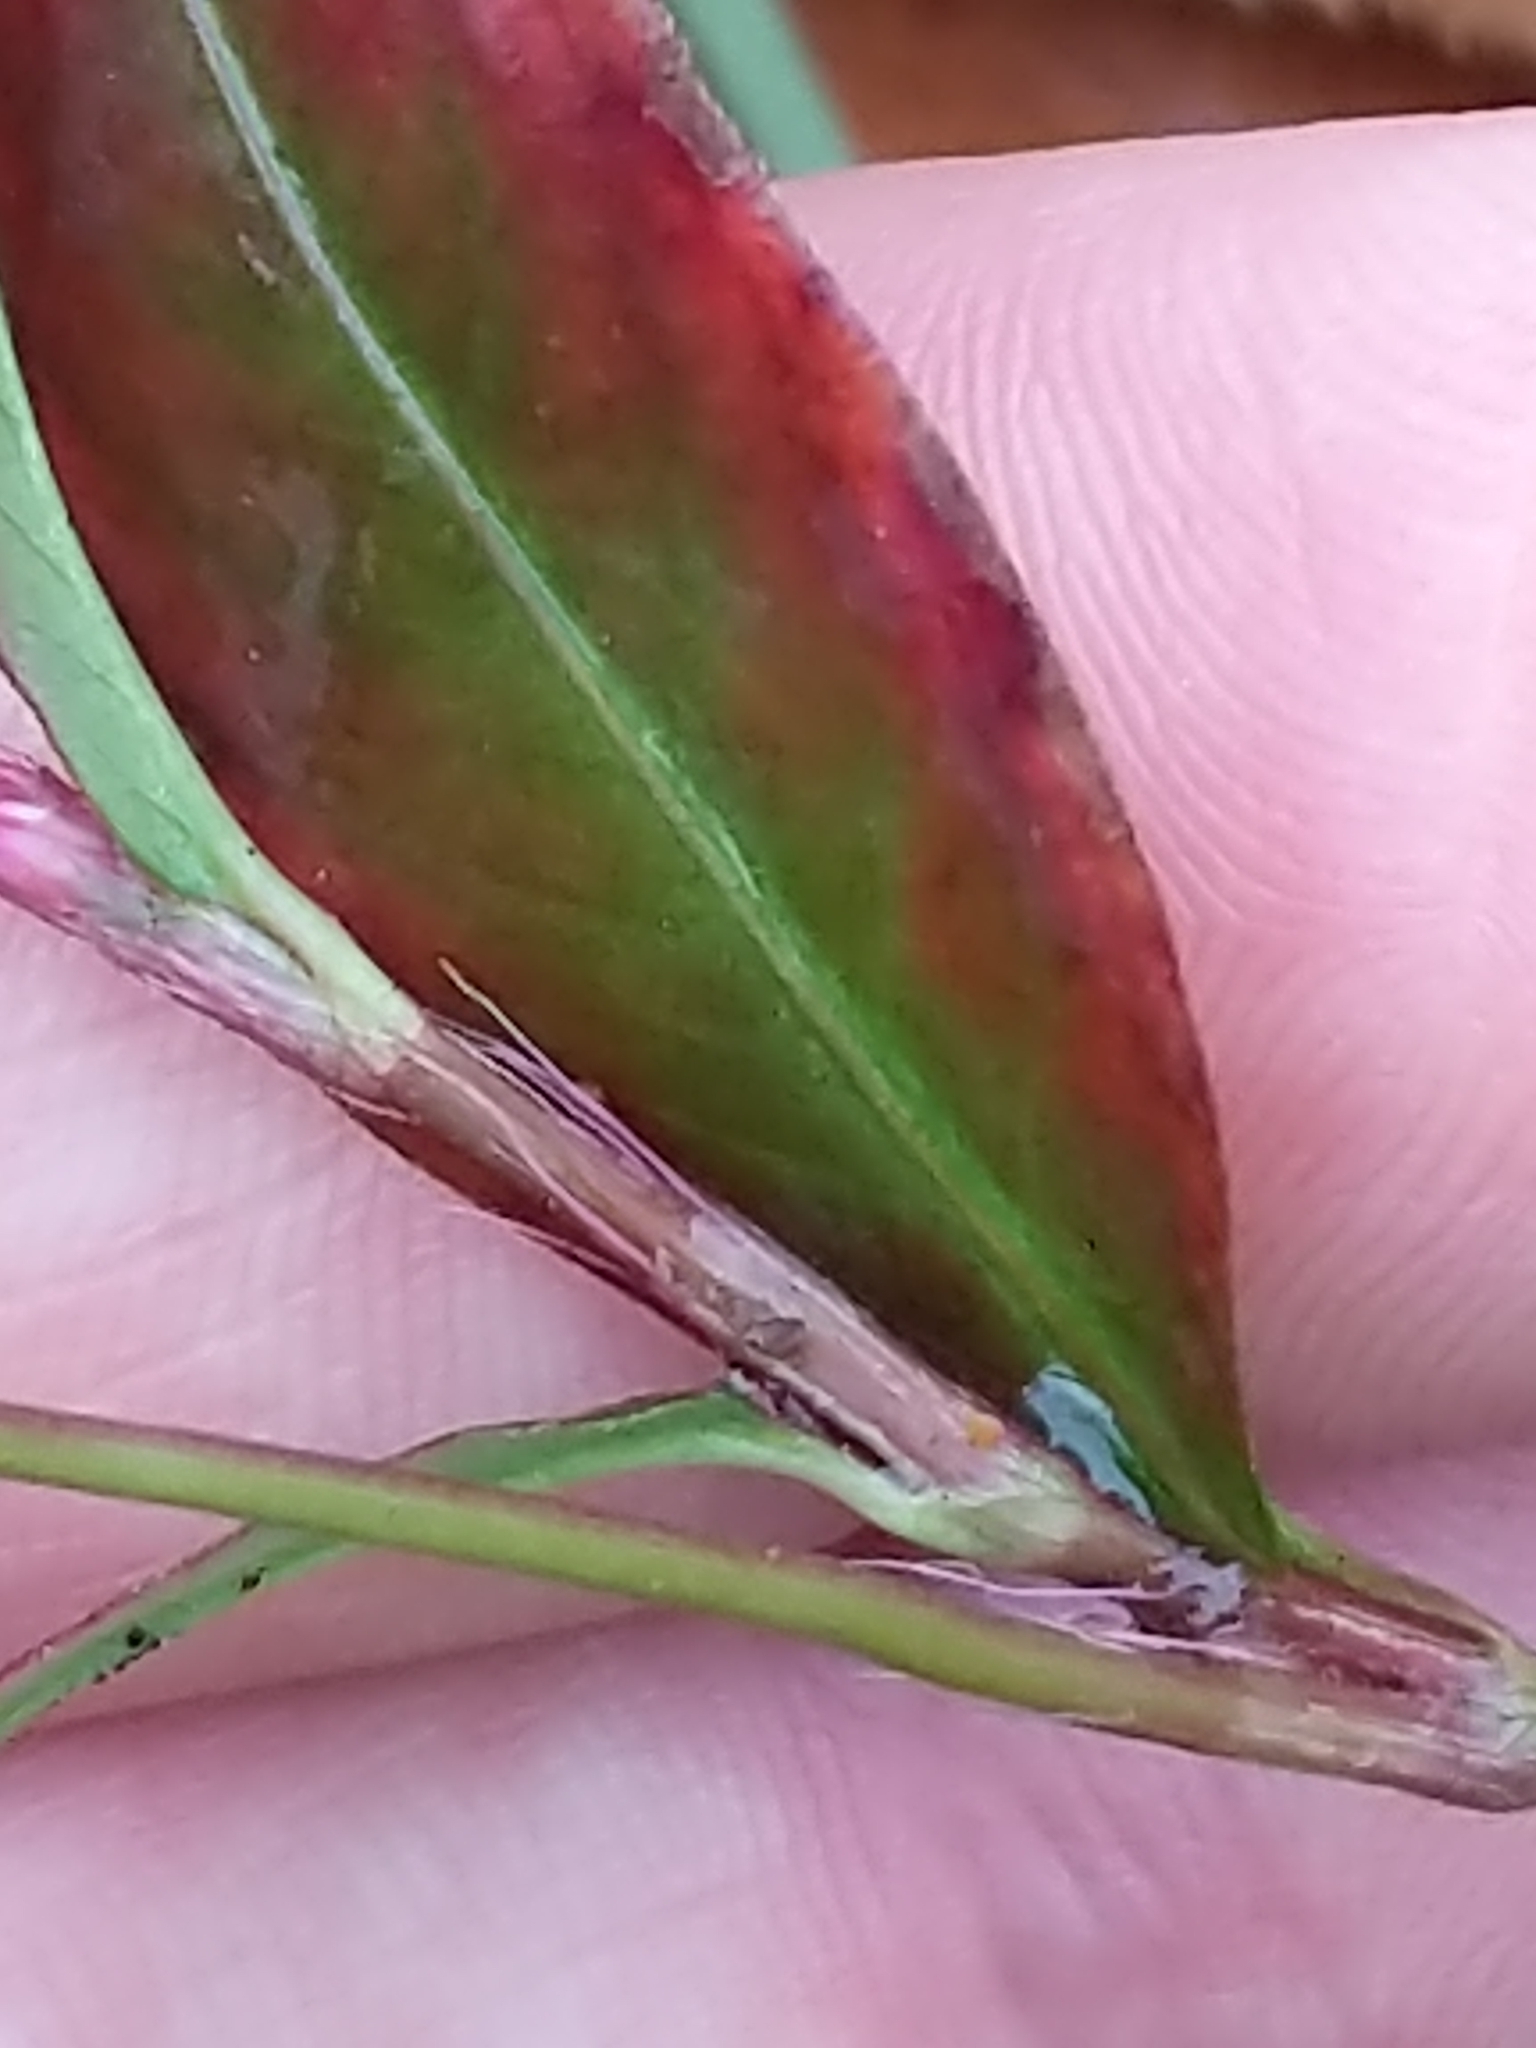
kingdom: Plantae
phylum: Tracheophyta
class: Magnoliopsida
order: Caryophyllales
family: Polygonaceae
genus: Persicaria
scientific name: Persicaria longiseta
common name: Bristly lady's-thumb
